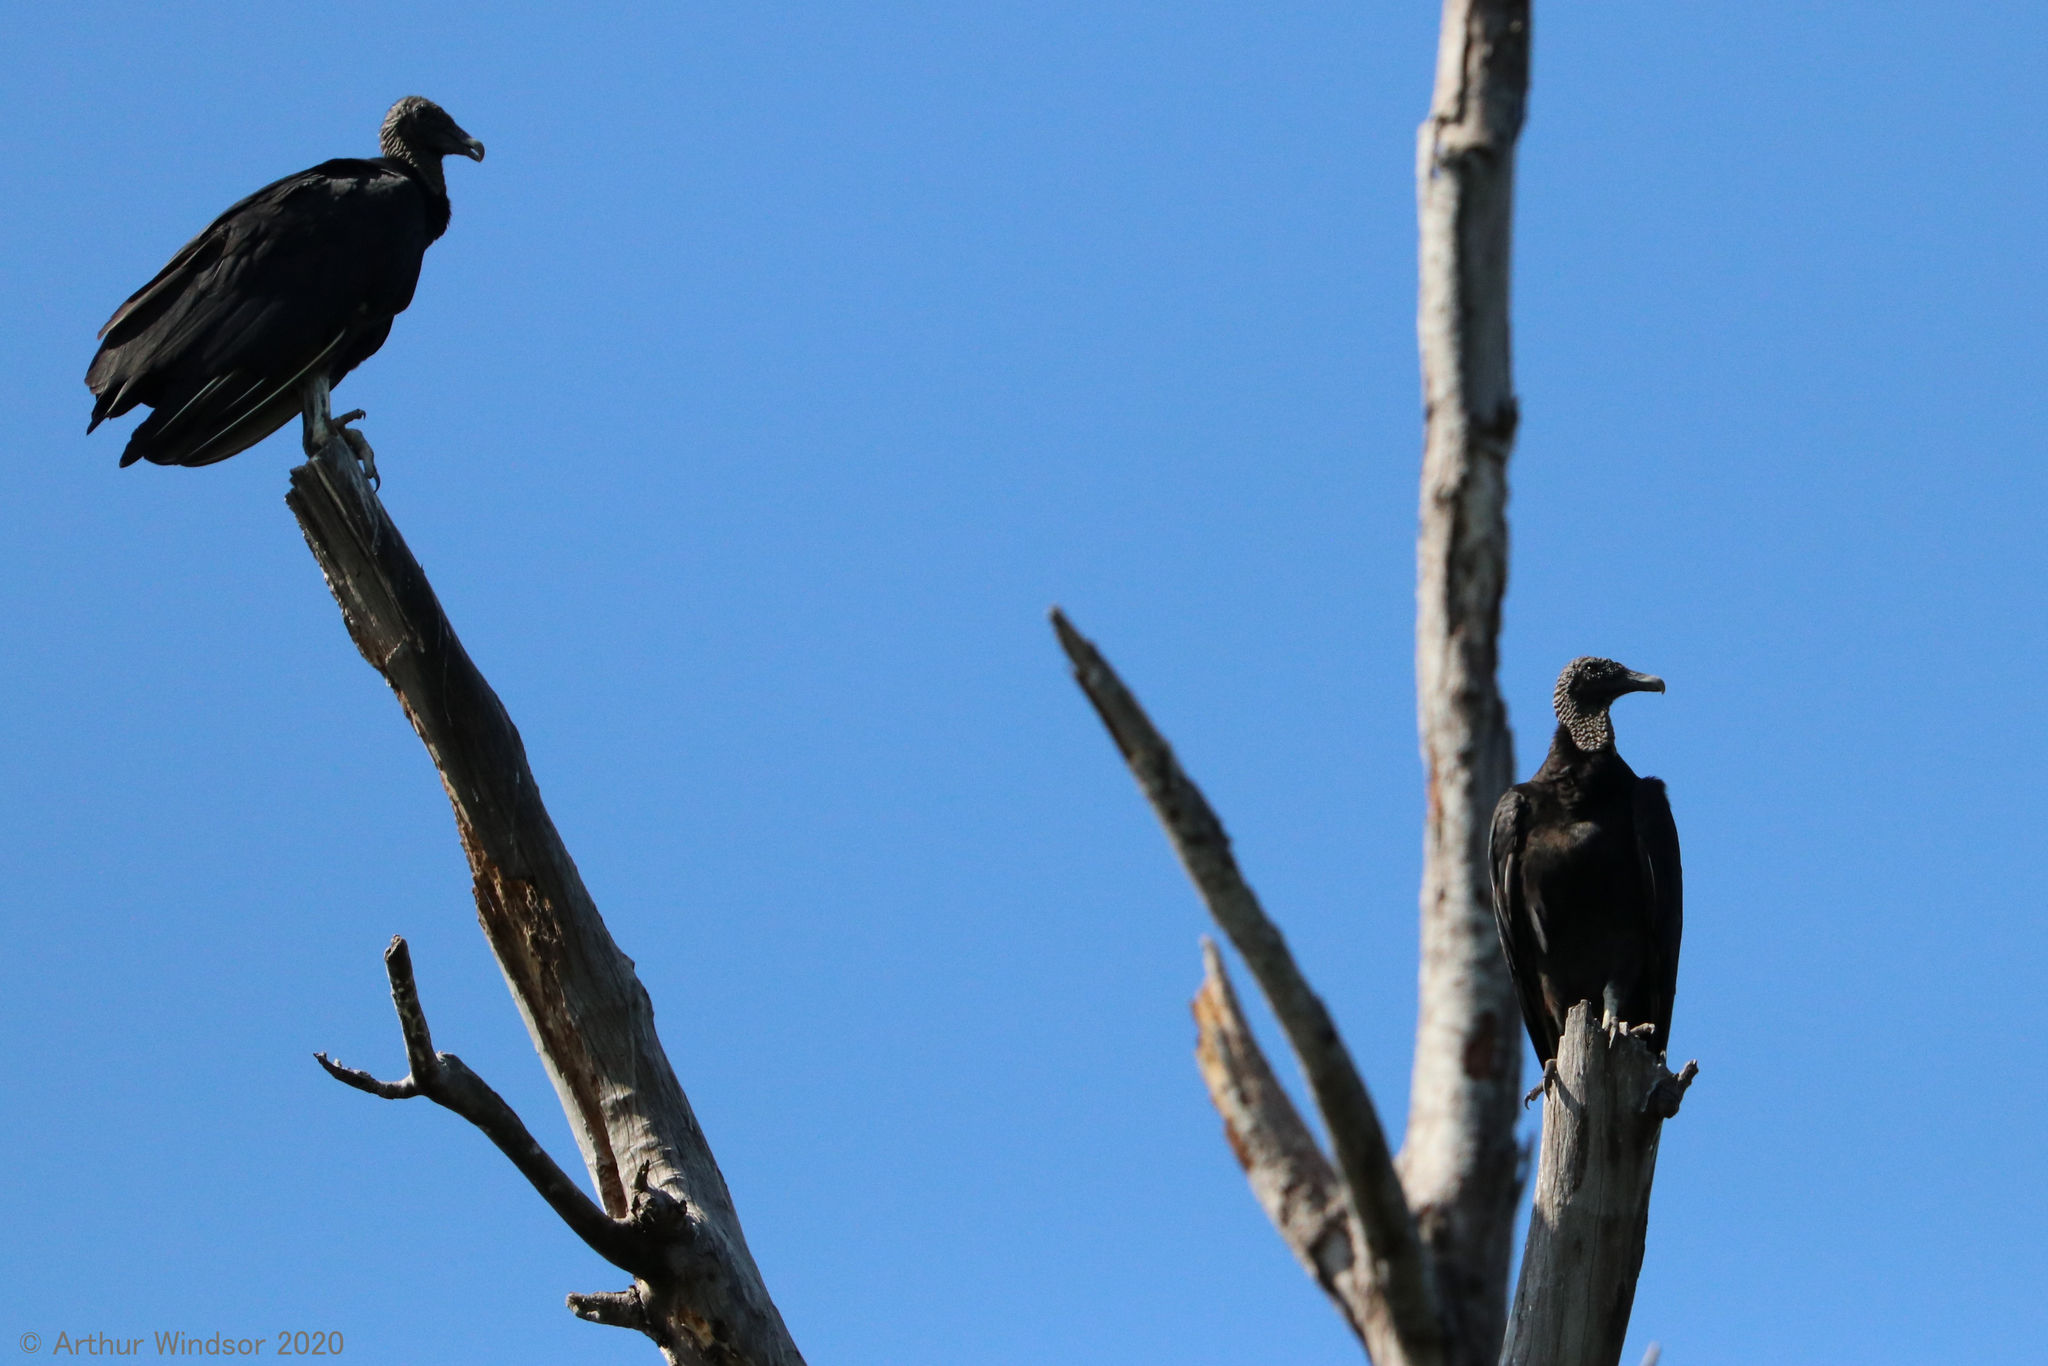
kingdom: Animalia
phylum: Chordata
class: Aves
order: Accipitriformes
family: Cathartidae
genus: Coragyps
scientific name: Coragyps atratus
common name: Black vulture
